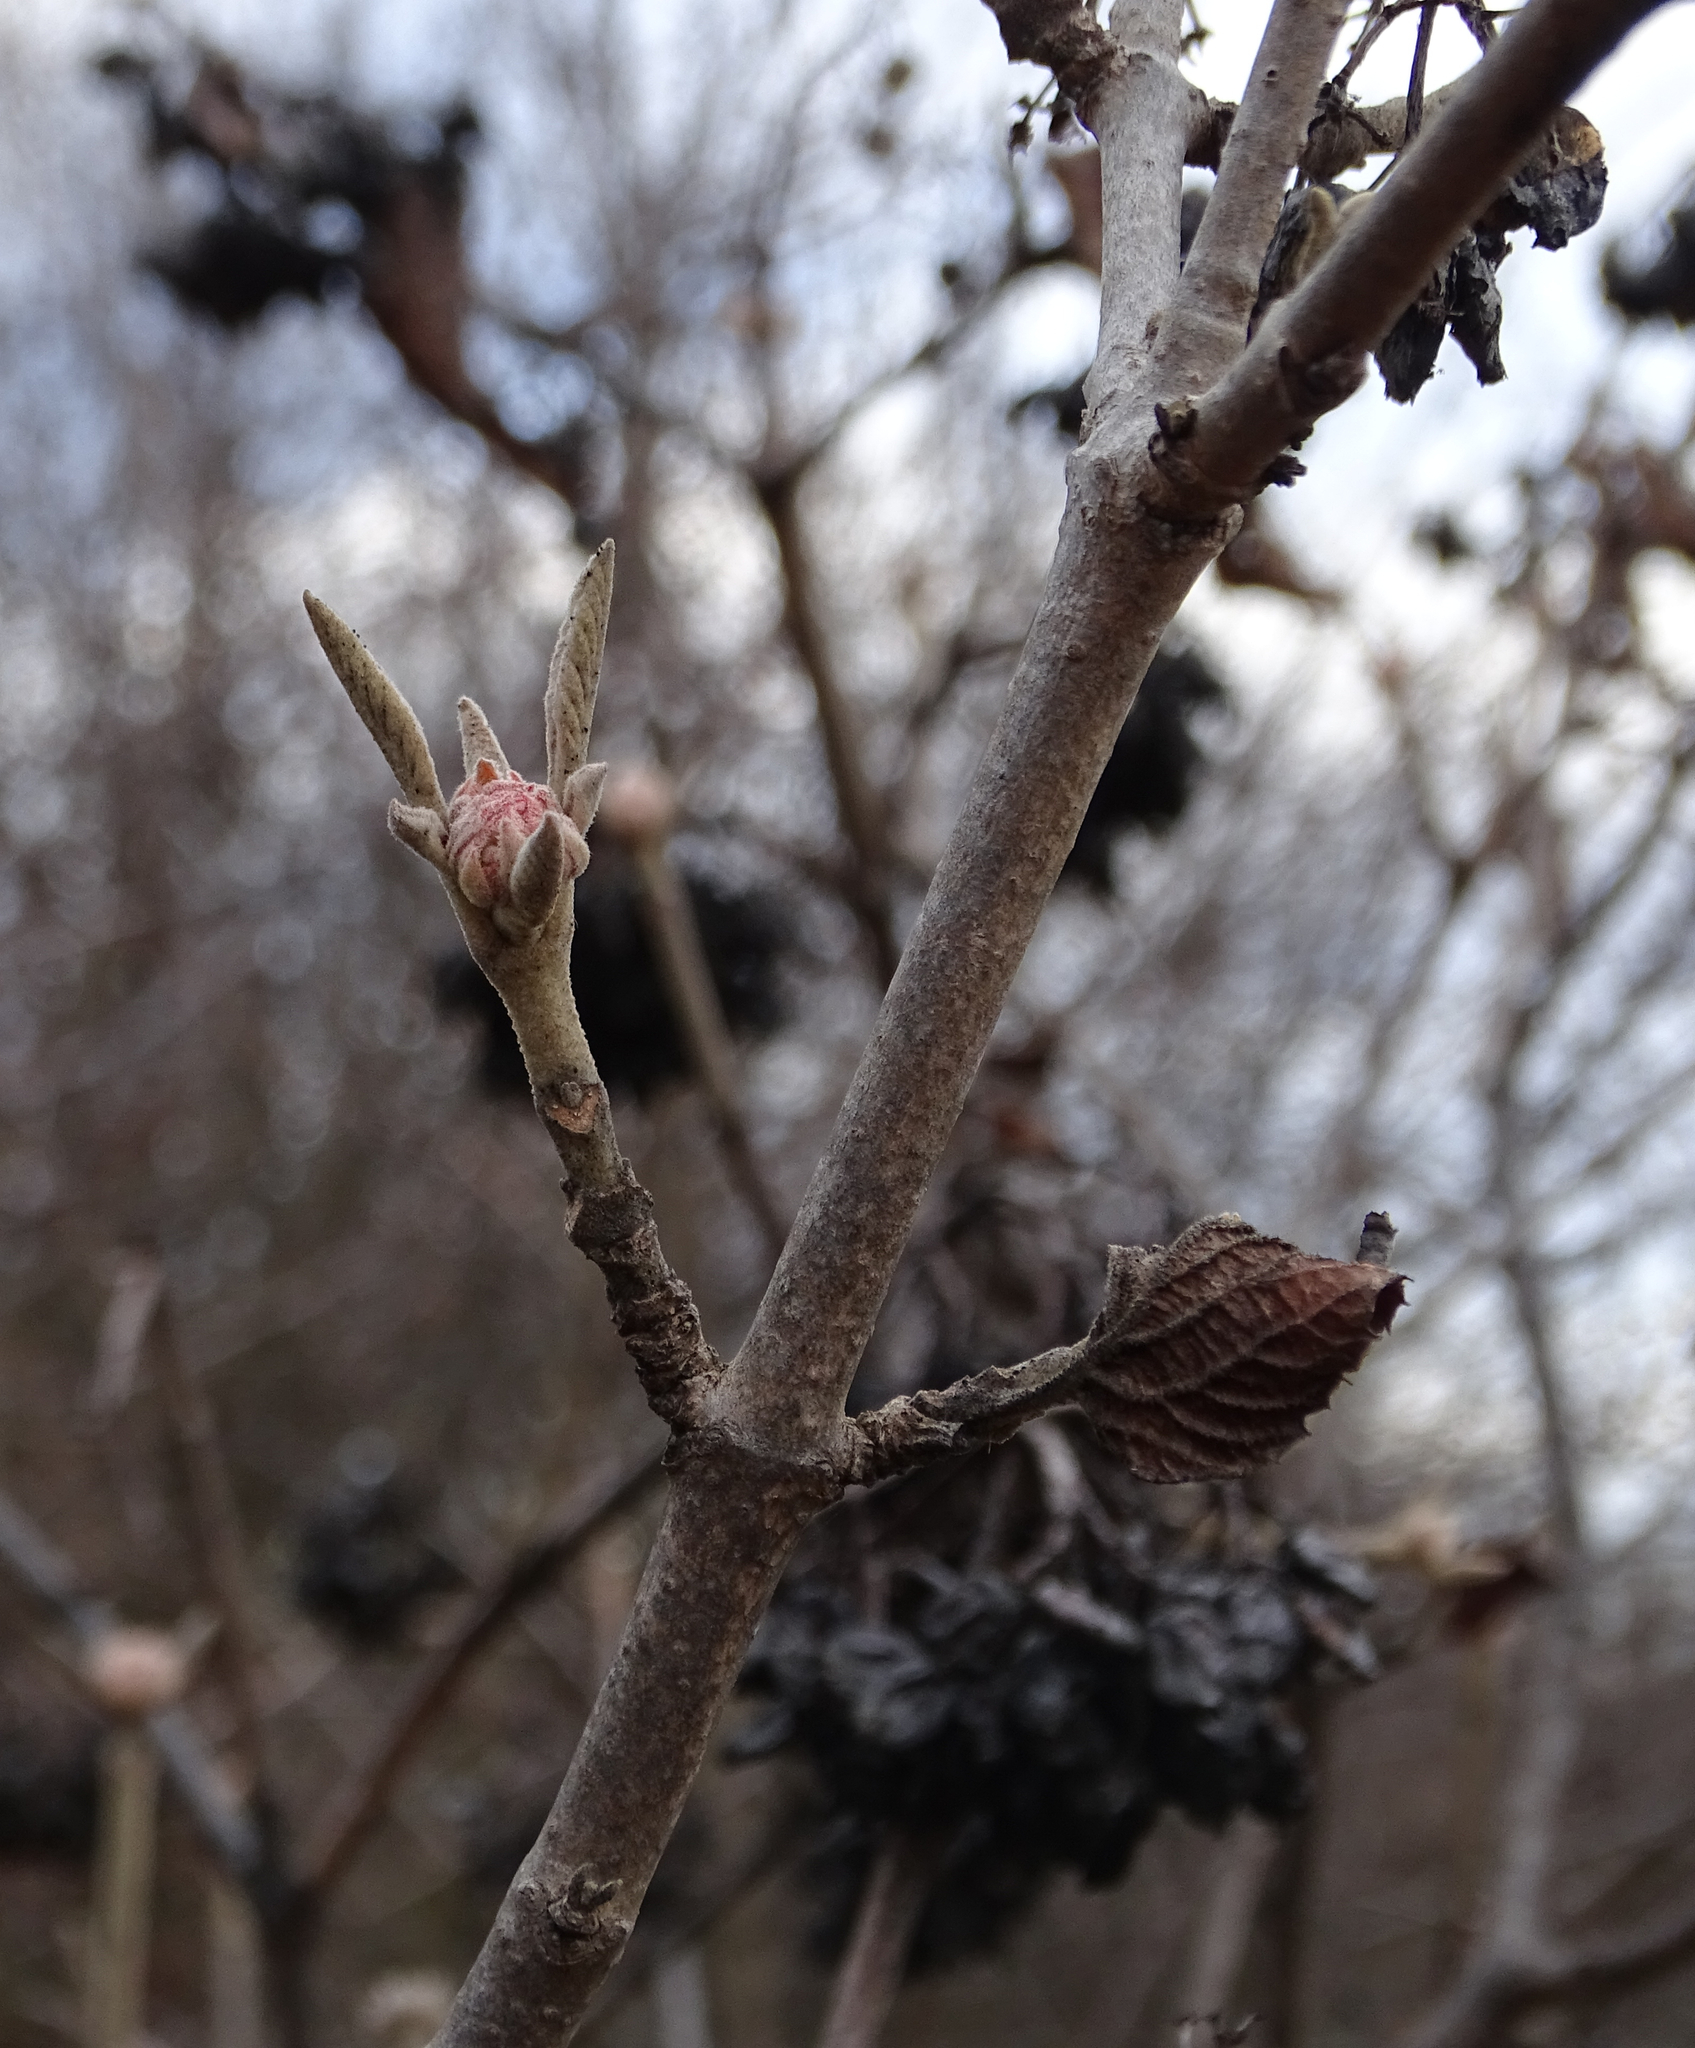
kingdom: Plantae
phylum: Tracheophyta
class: Magnoliopsida
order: Dipsacales
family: Viburnaceae
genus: Viburnum
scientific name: Viburnum lantana
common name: Wayfaring tree
